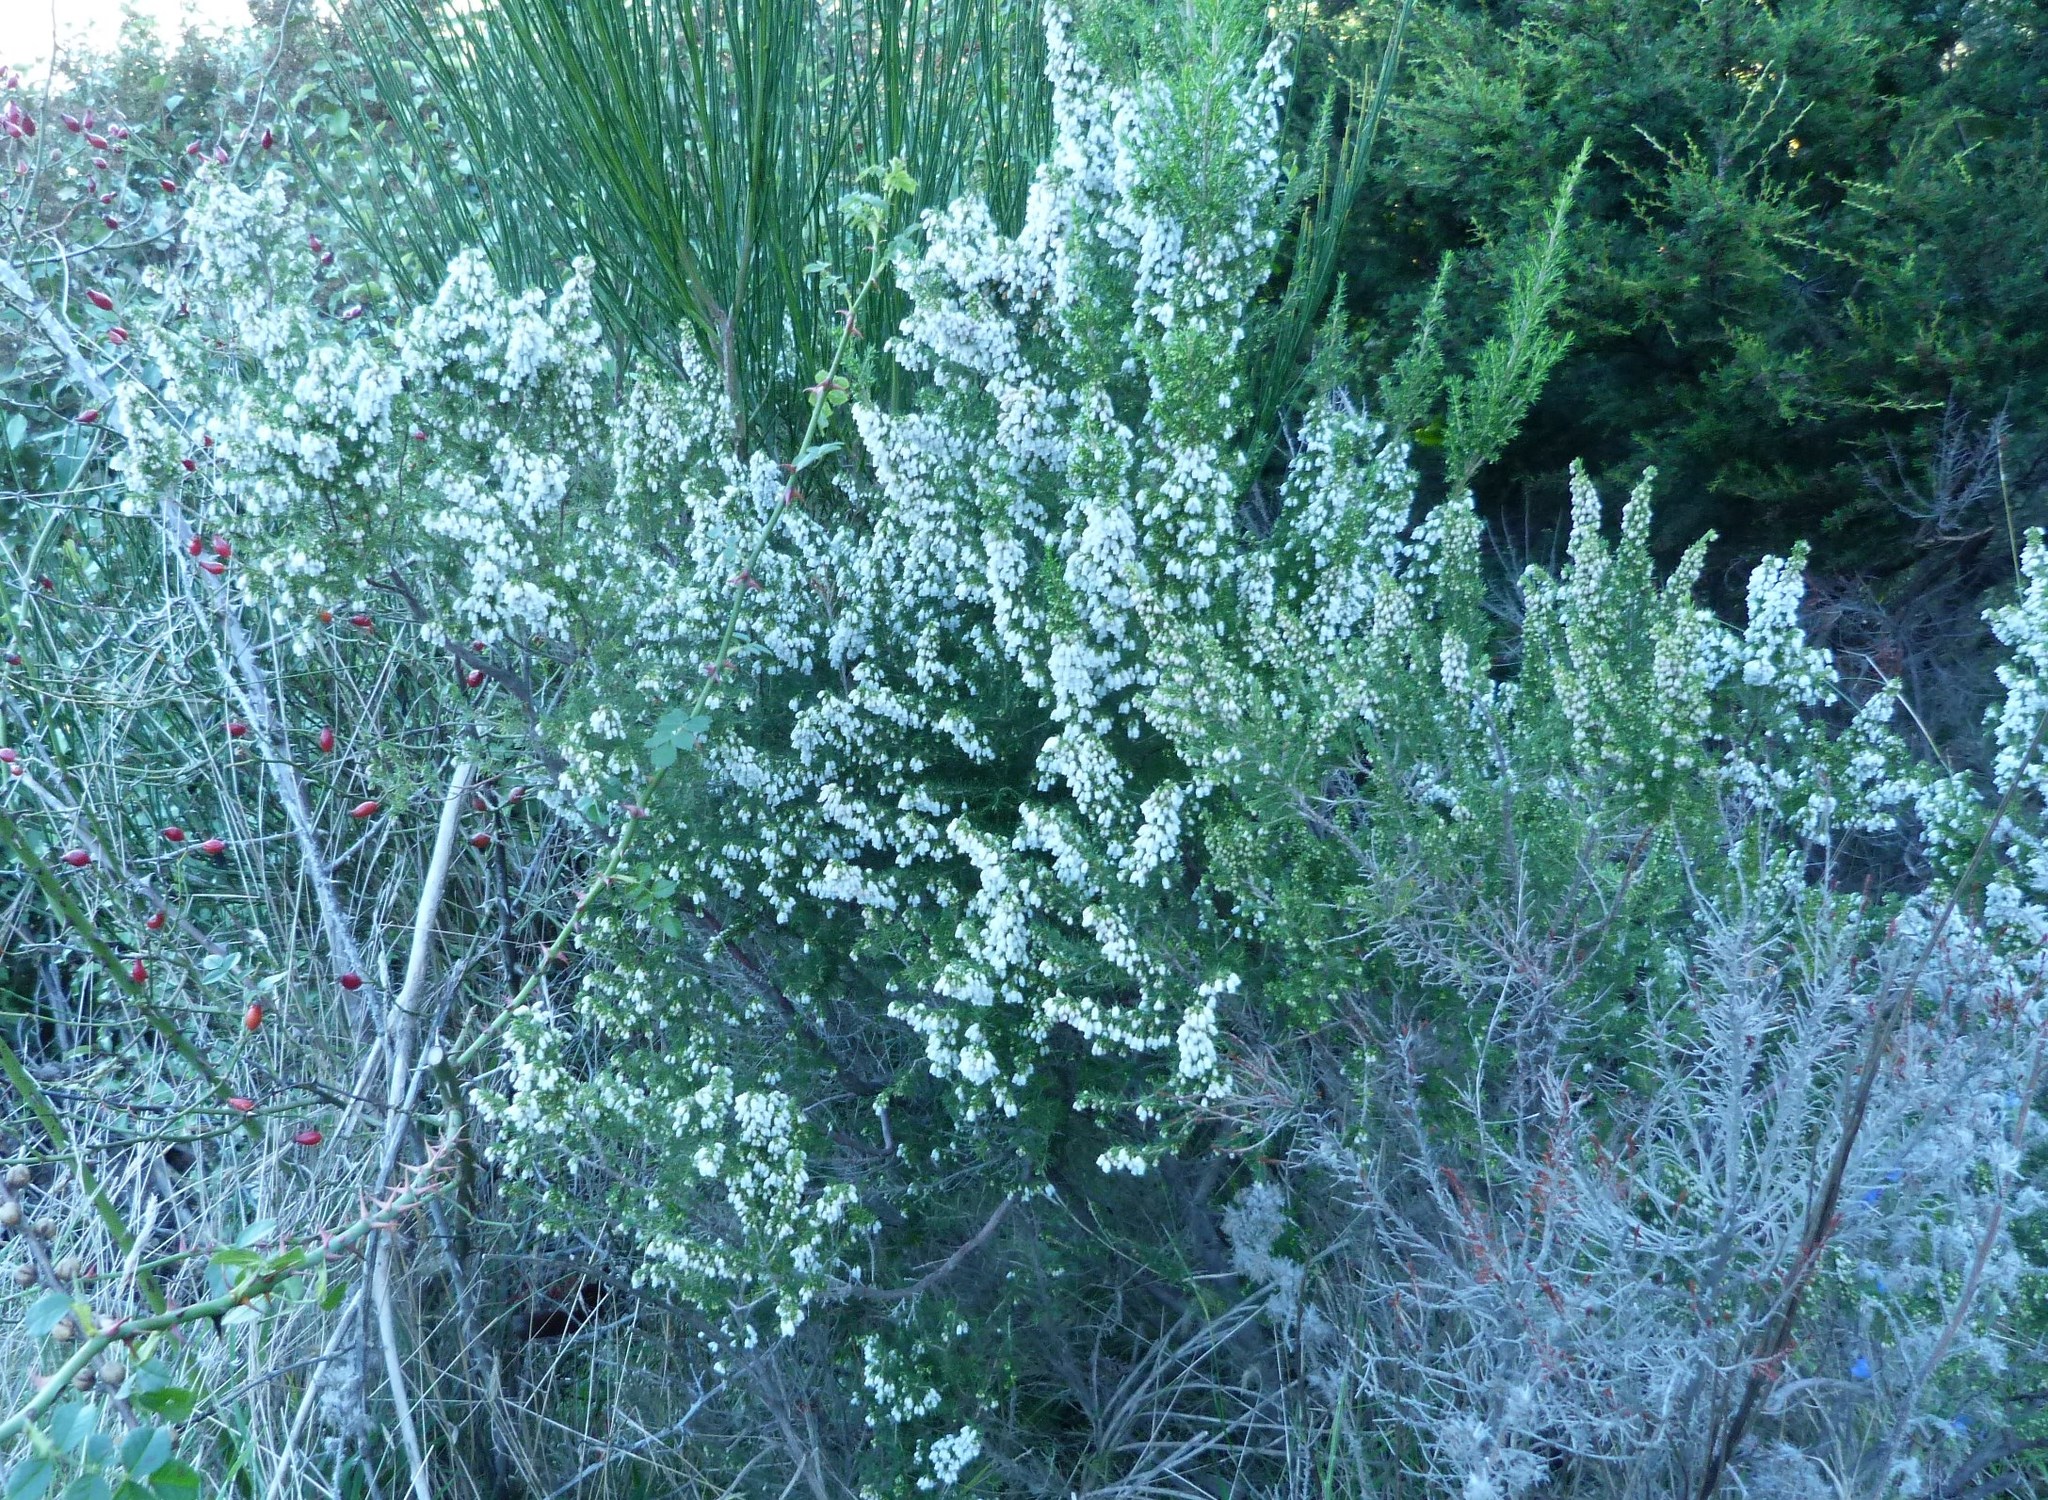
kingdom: Plantae
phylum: Tracheophyta
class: Magnoliopsida
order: Ericales
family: Ericaceae
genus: Erica
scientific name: Erica lusitanica
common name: Spanish heath
